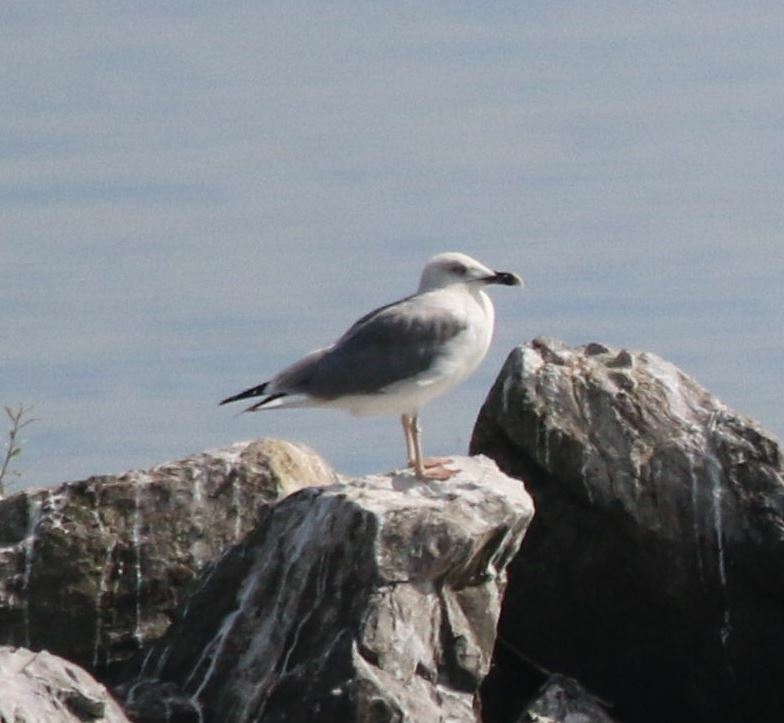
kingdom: Animalia
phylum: Chordata
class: Aves
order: Charadriiformes
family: Laridae
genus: Larus
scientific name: Larus michahellis
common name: Yellow-legged gull
